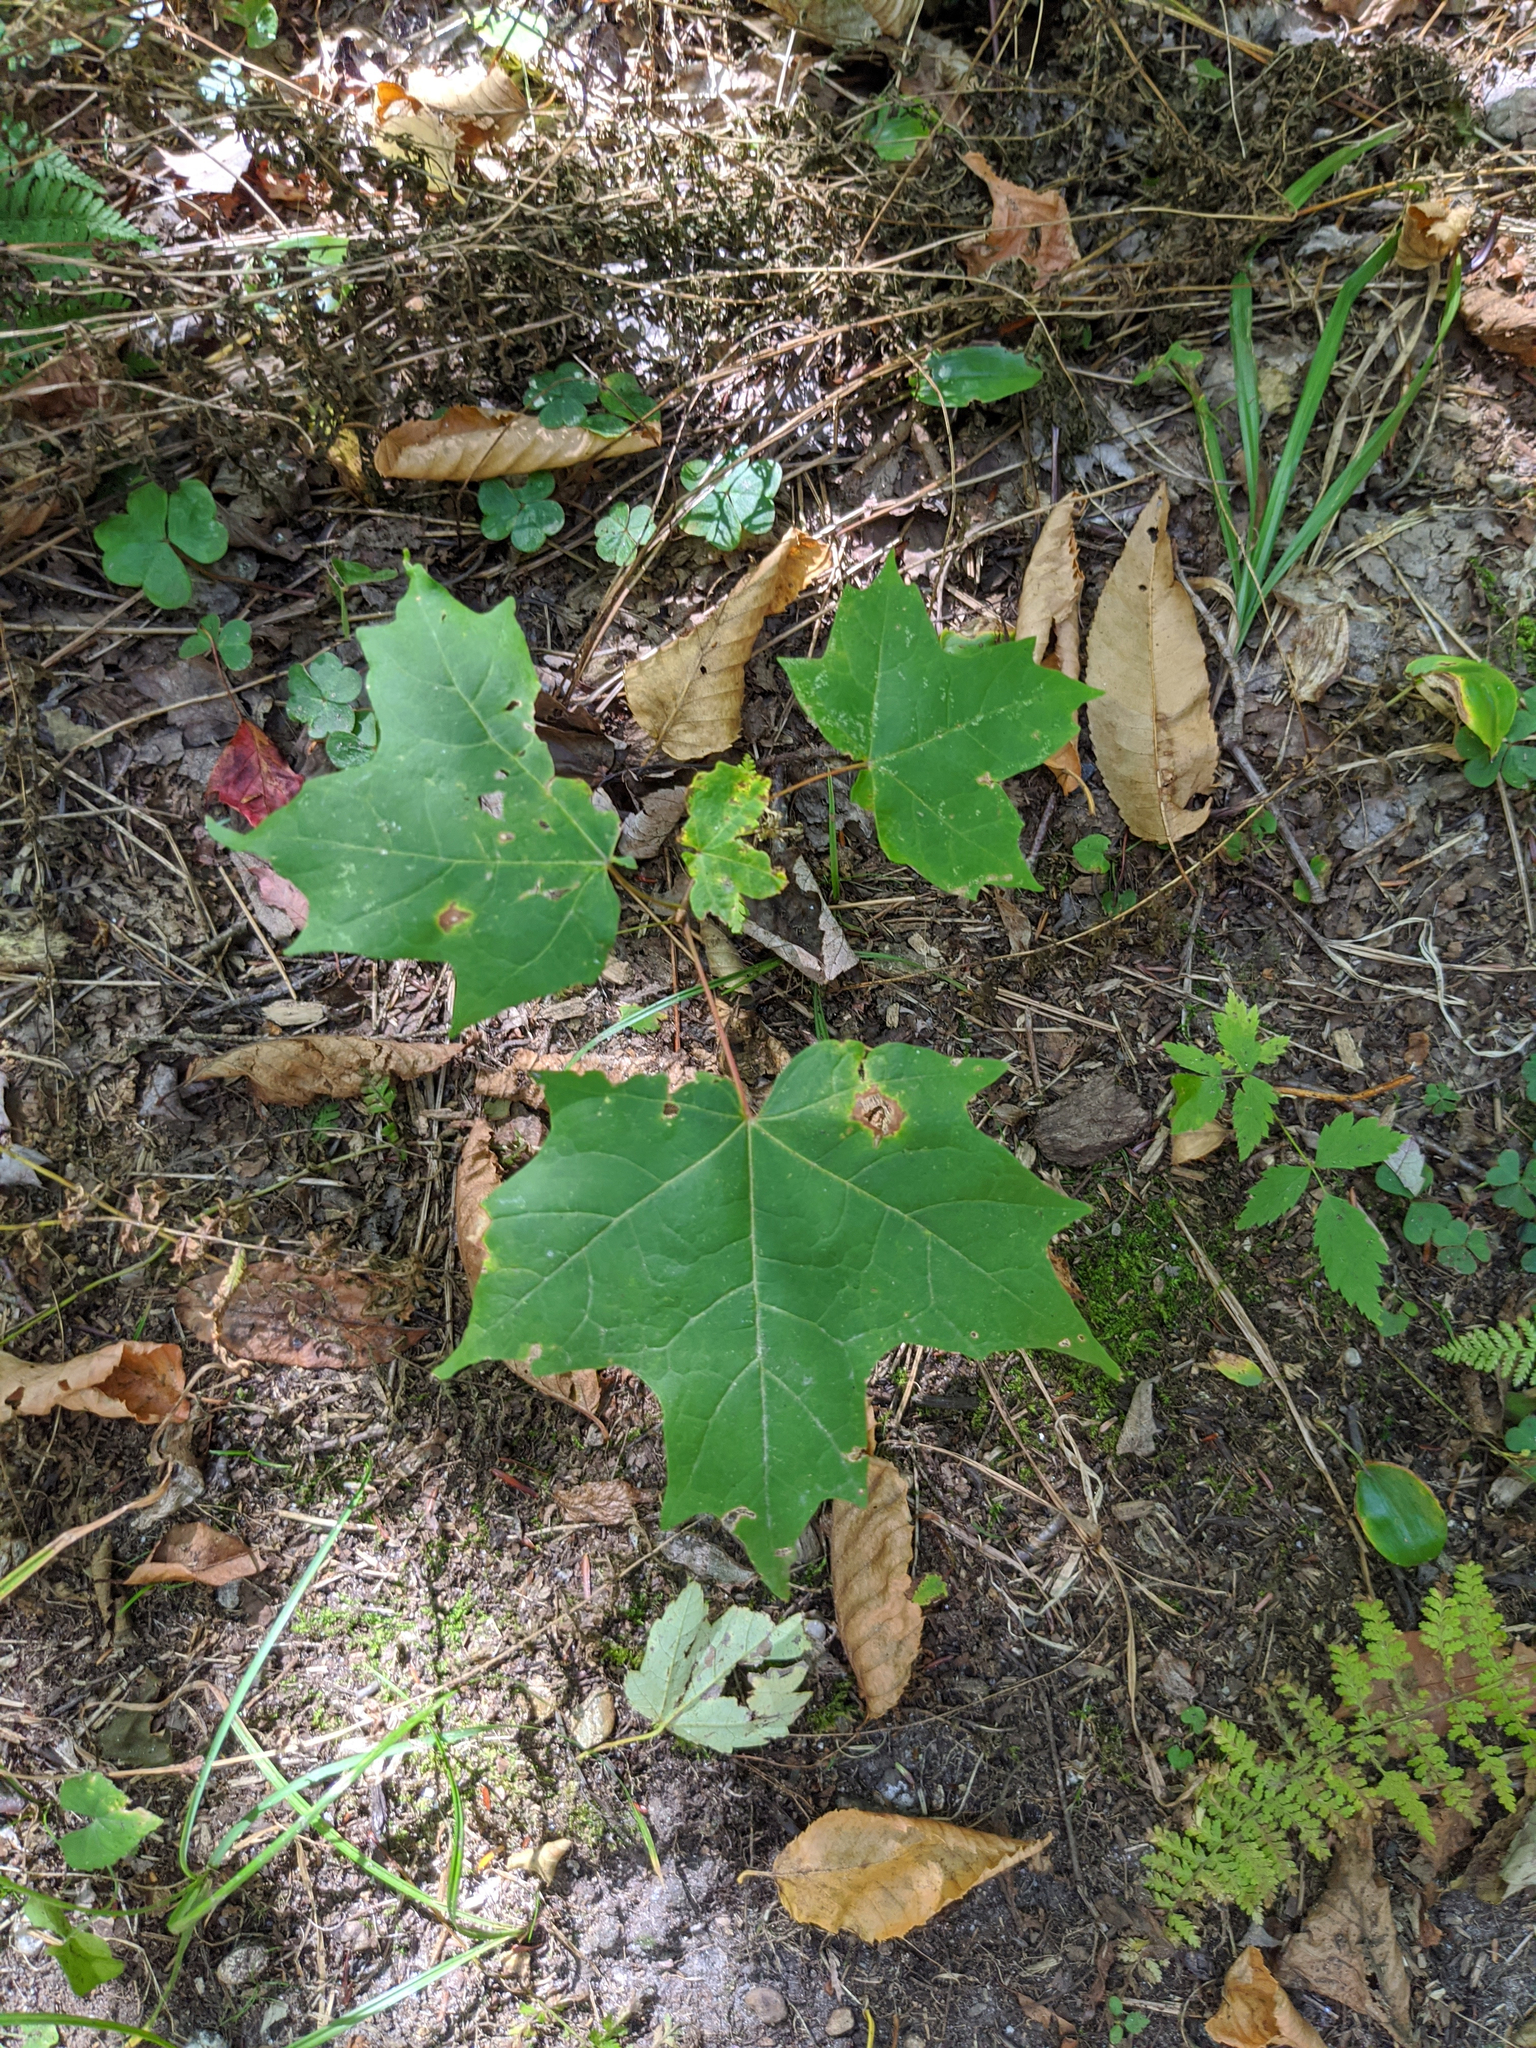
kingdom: Plantae
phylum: Tracheophyta
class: Magnoliopsida
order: Sapindales
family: Sapindaceae
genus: Acer
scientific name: Acer saccharum
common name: Sugar maple
